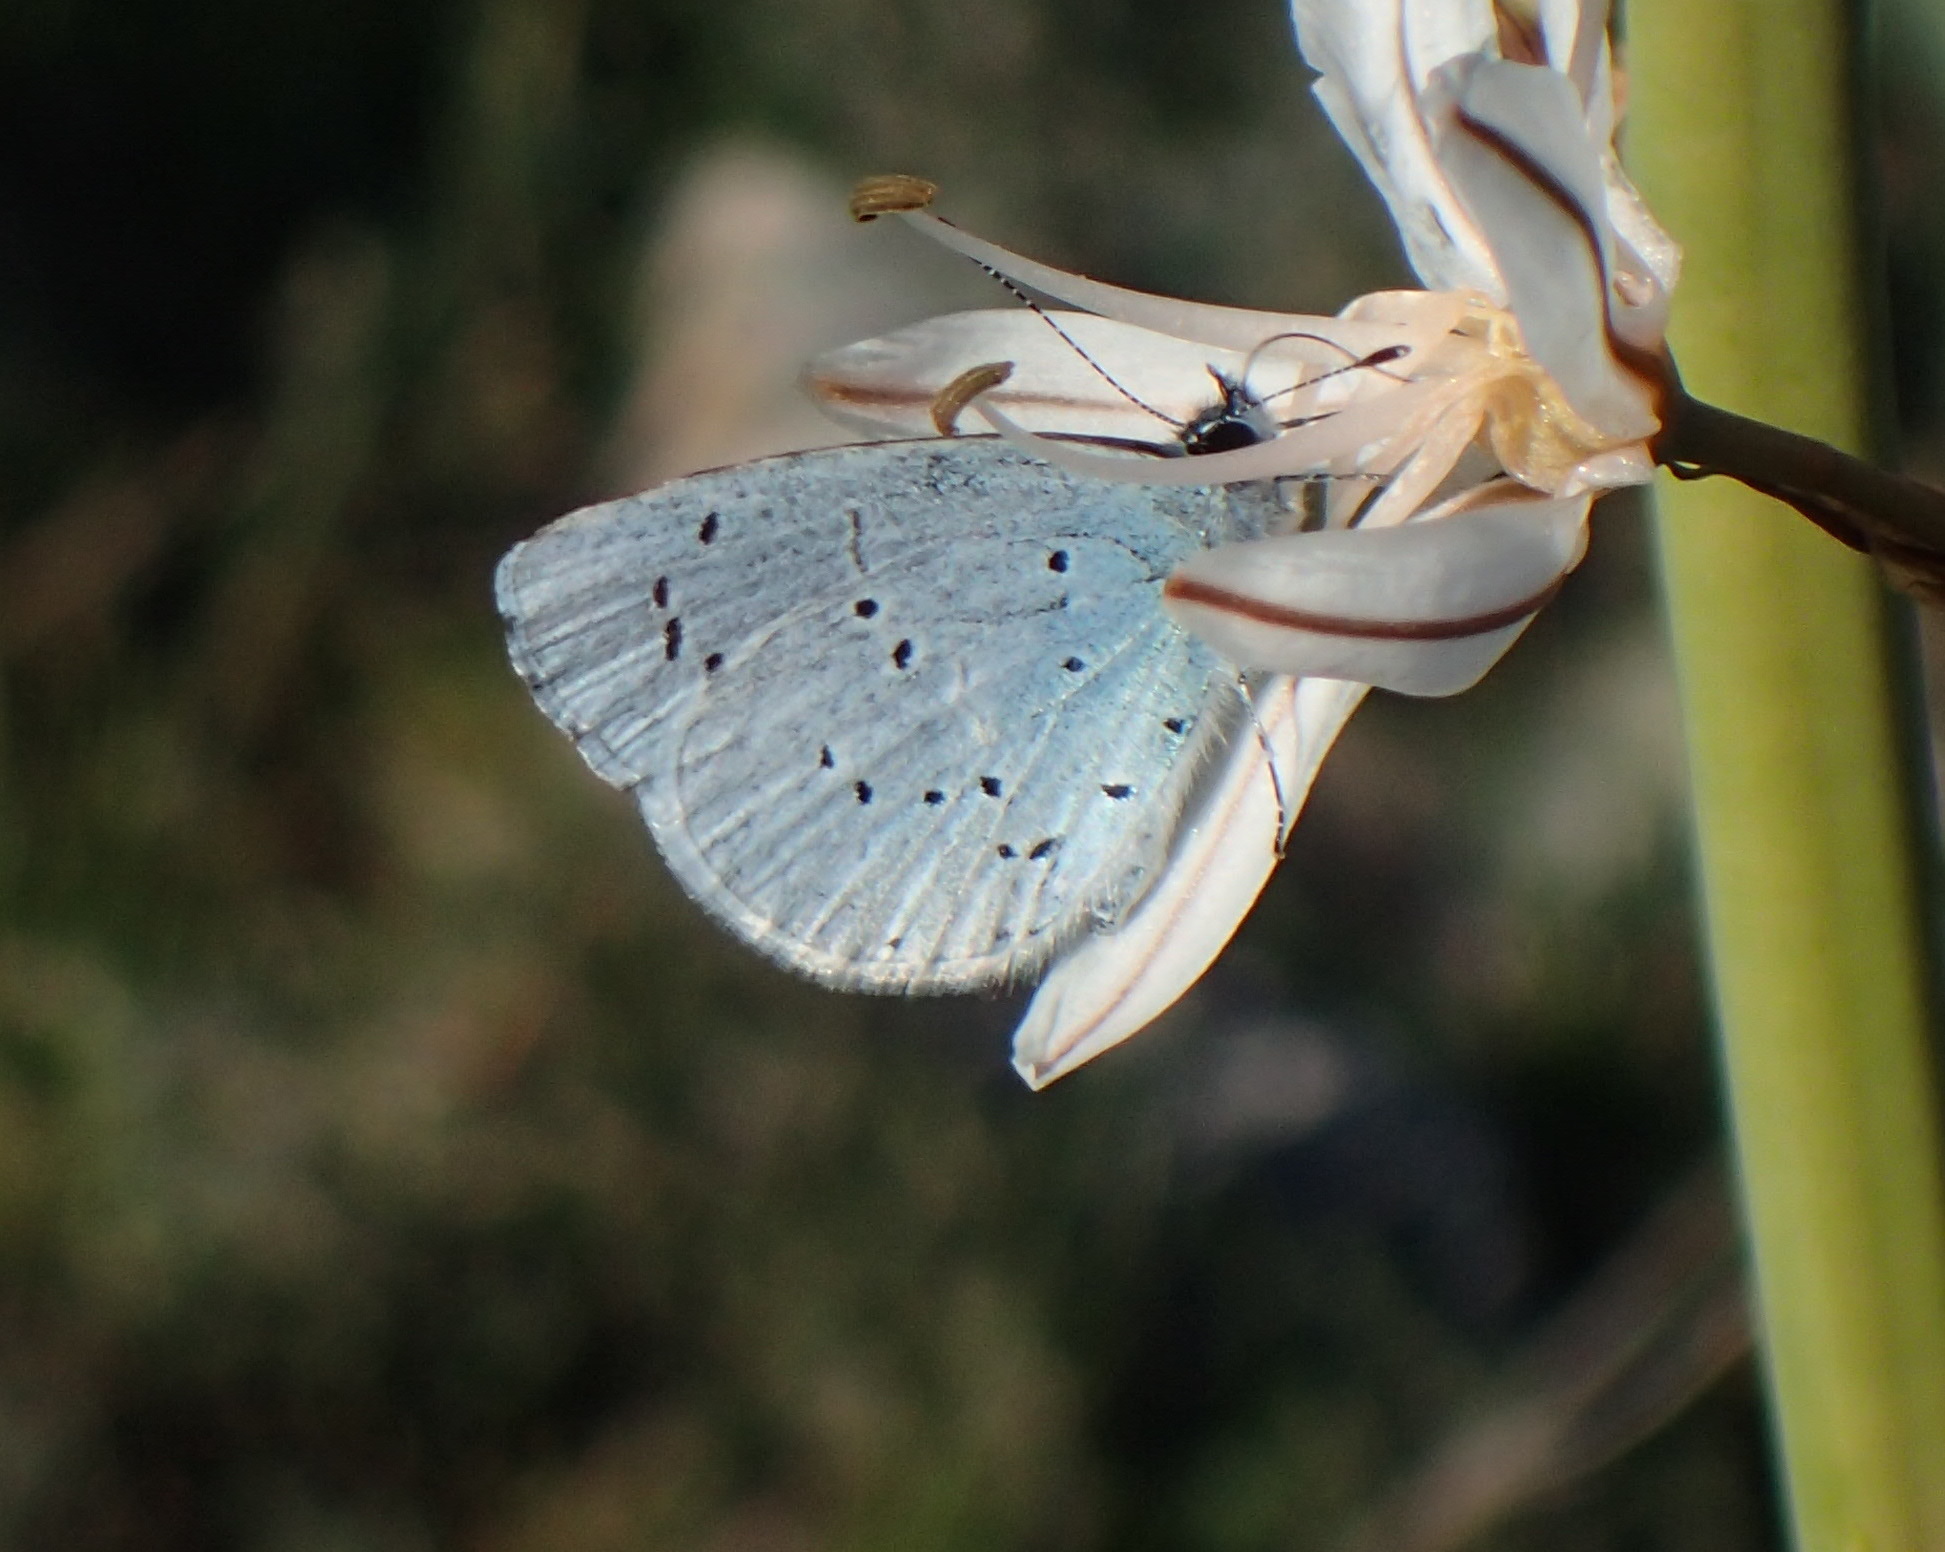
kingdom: Animalia
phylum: Arthropoda
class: Insecta
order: Lepidoptera
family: Lycaenidae
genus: Celastrina
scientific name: Celastrina argiolus
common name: Holly blue
